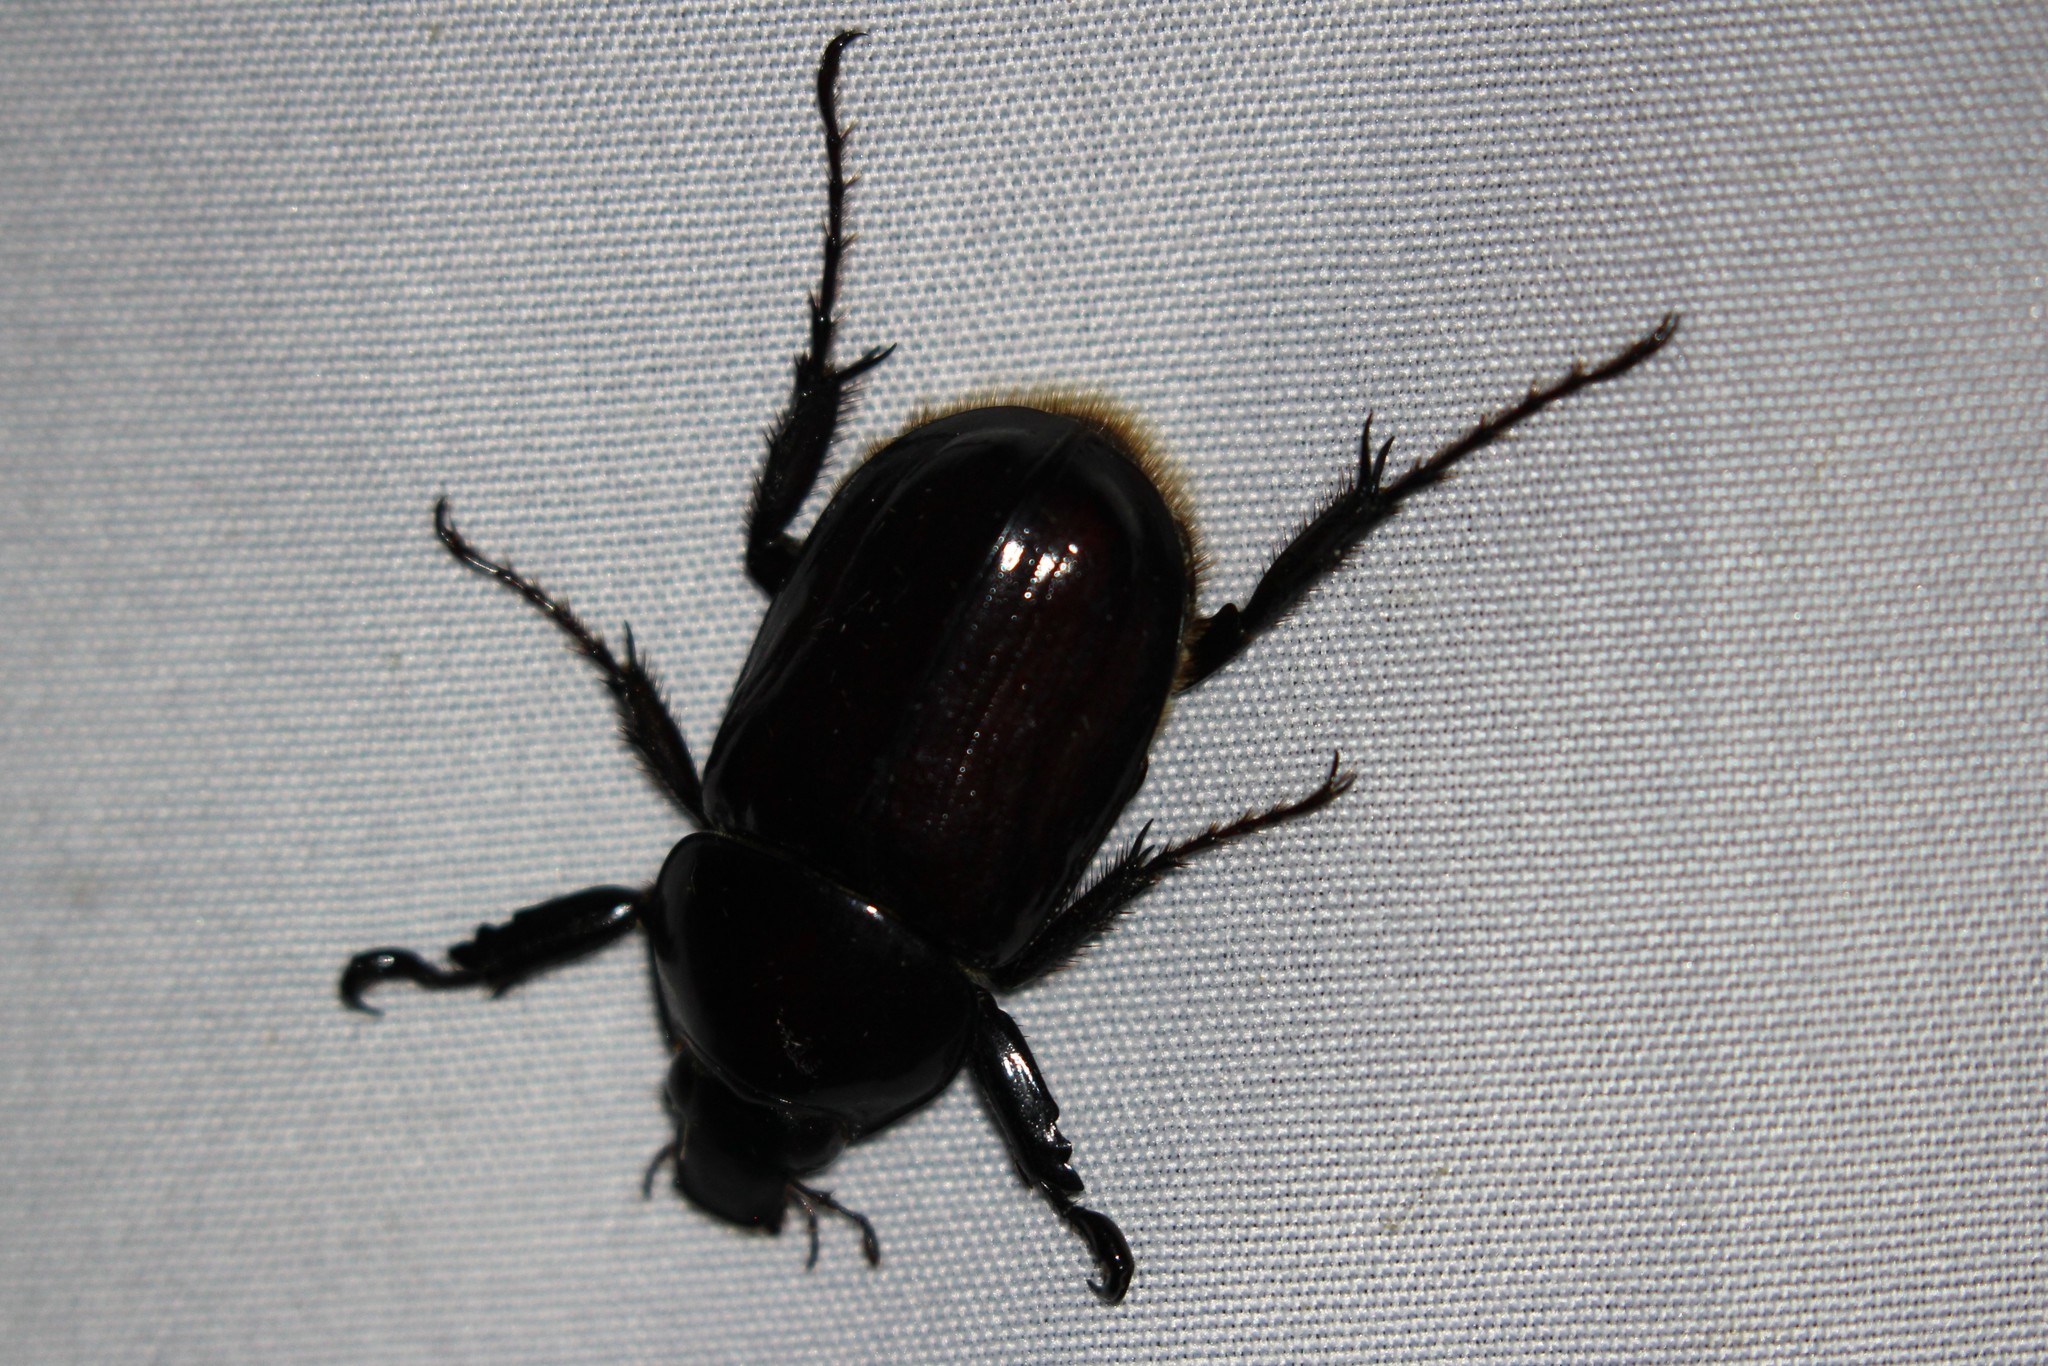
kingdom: Animalia
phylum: Arthropoda
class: Insecta
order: Coleoptera
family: Scarabaeidae
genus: Aspidolea
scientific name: Aspidolea fuliginea
